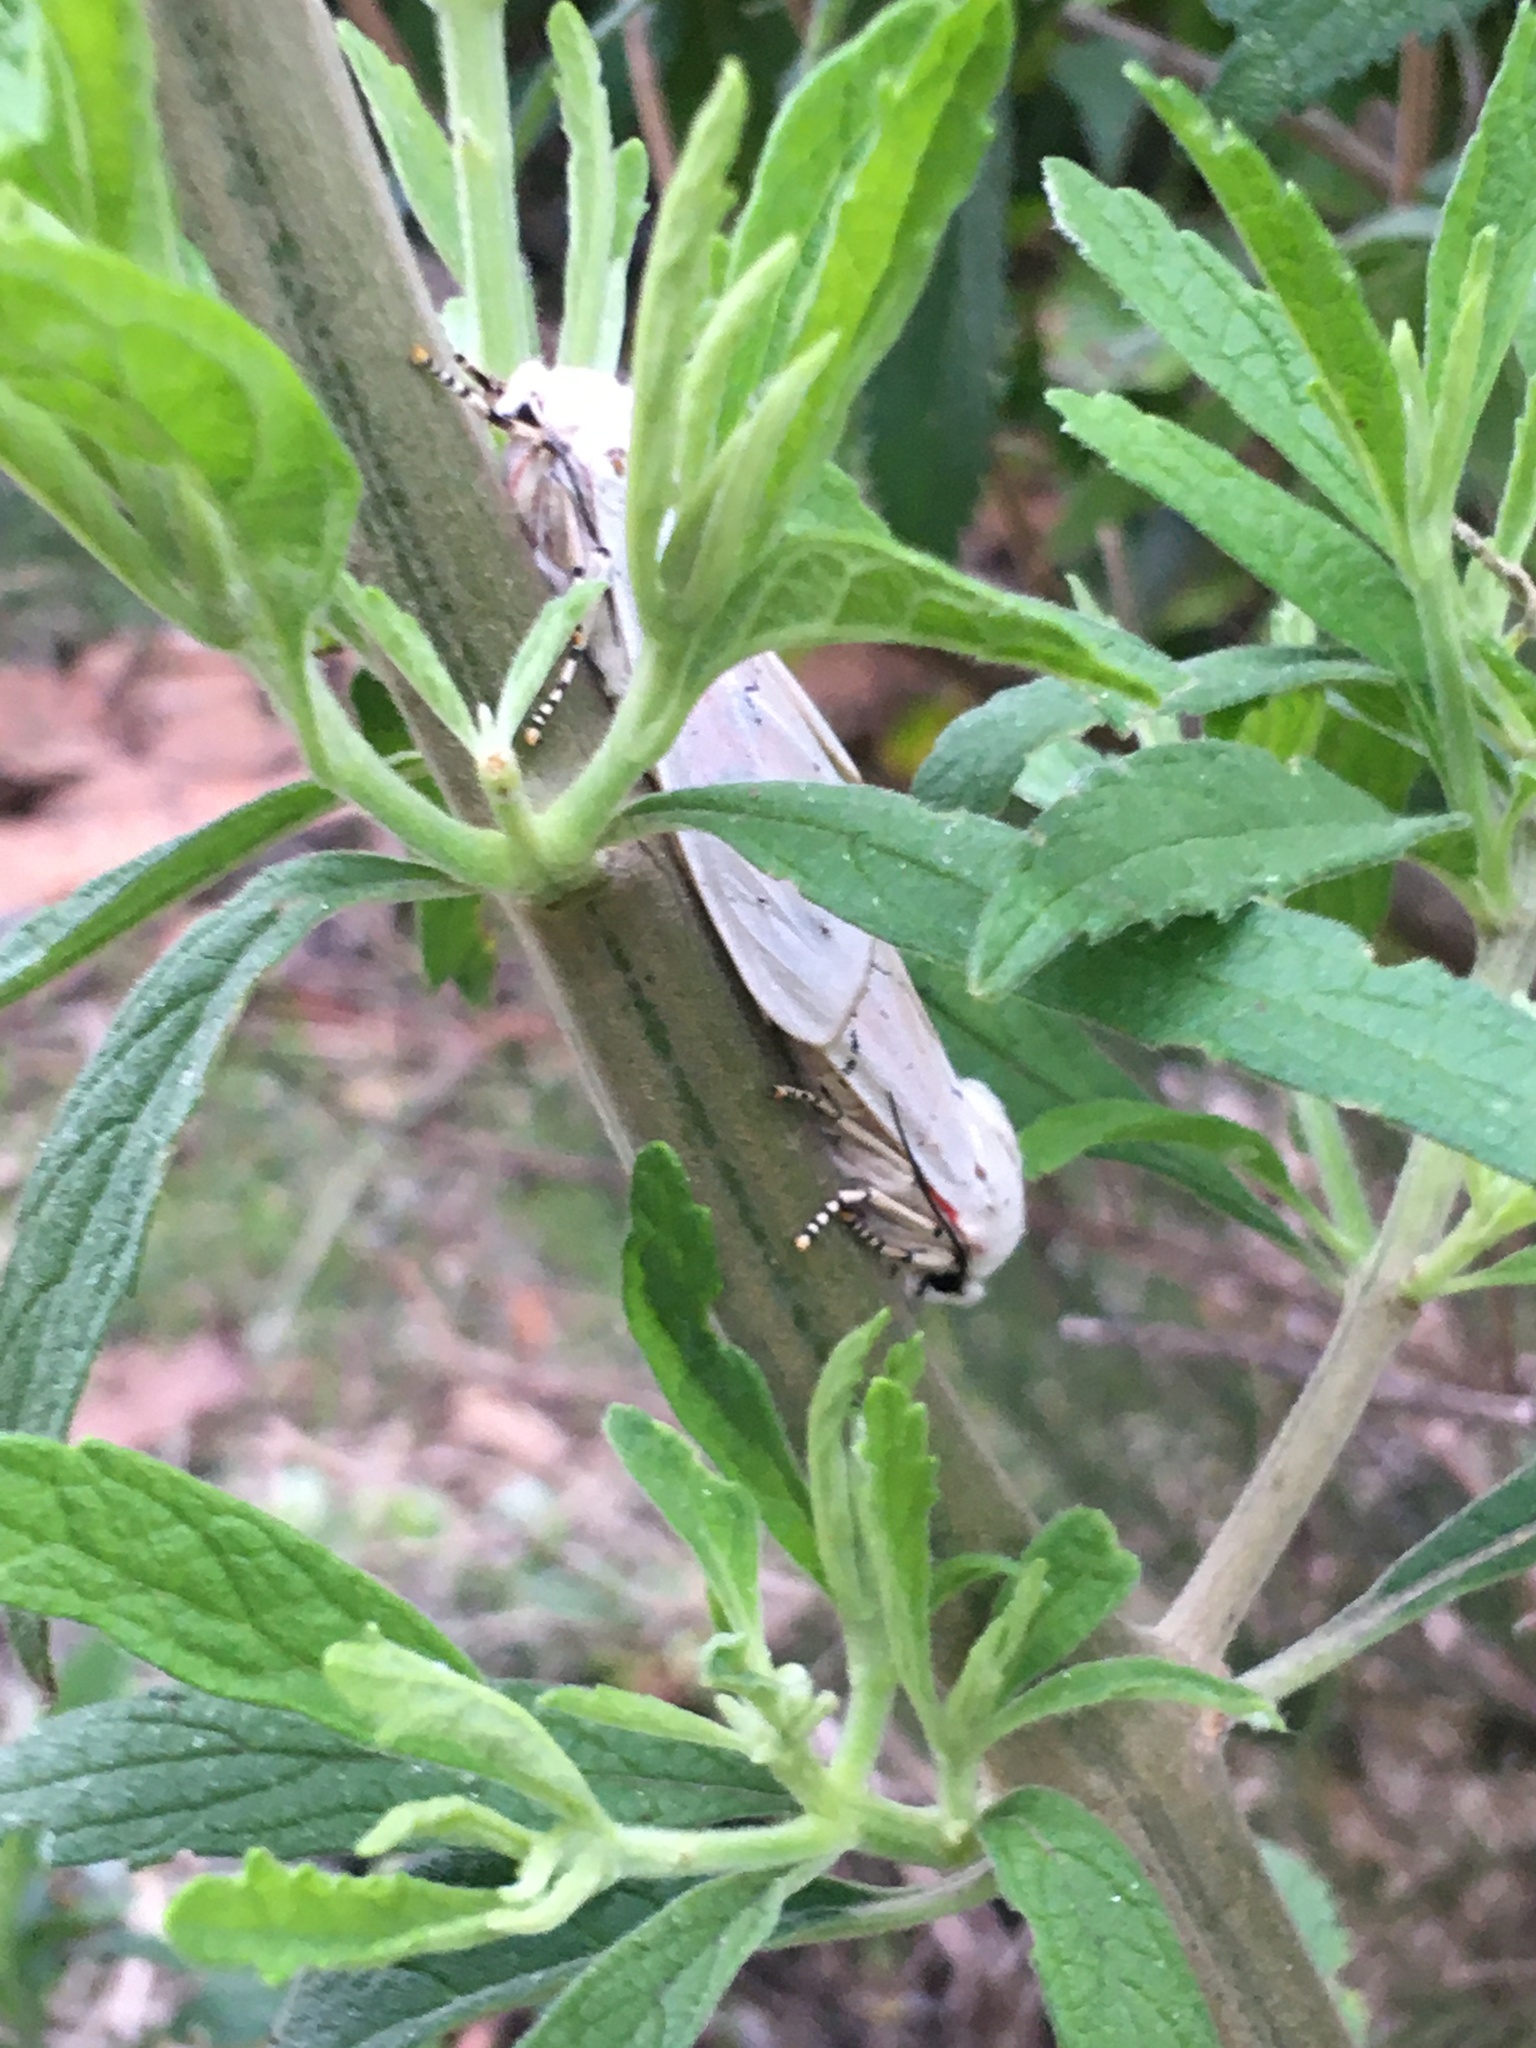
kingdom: Animalia
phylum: Arthropoda
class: Insecta
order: Lepidoptera
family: Erebidae
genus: Rhodogastria
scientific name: Rhodogastria amasis
